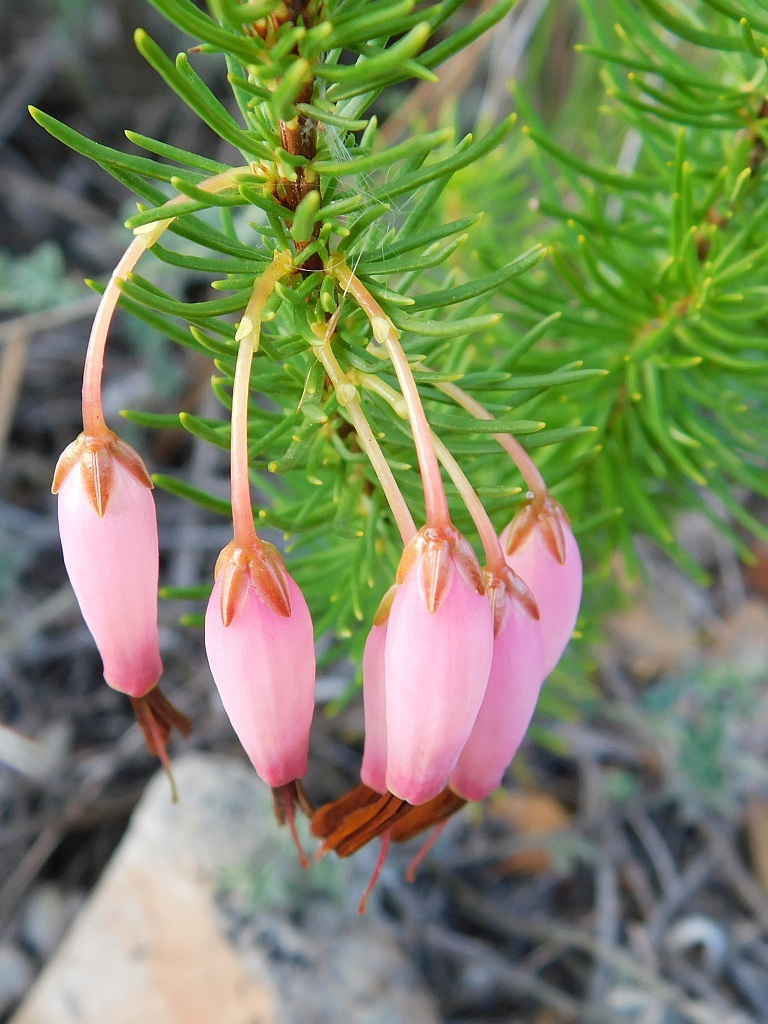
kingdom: Plantae
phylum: Tracheophyta
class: Magnoliopsida
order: Ericales
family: Ericaceae
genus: Erica
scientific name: Erica plukenetii
